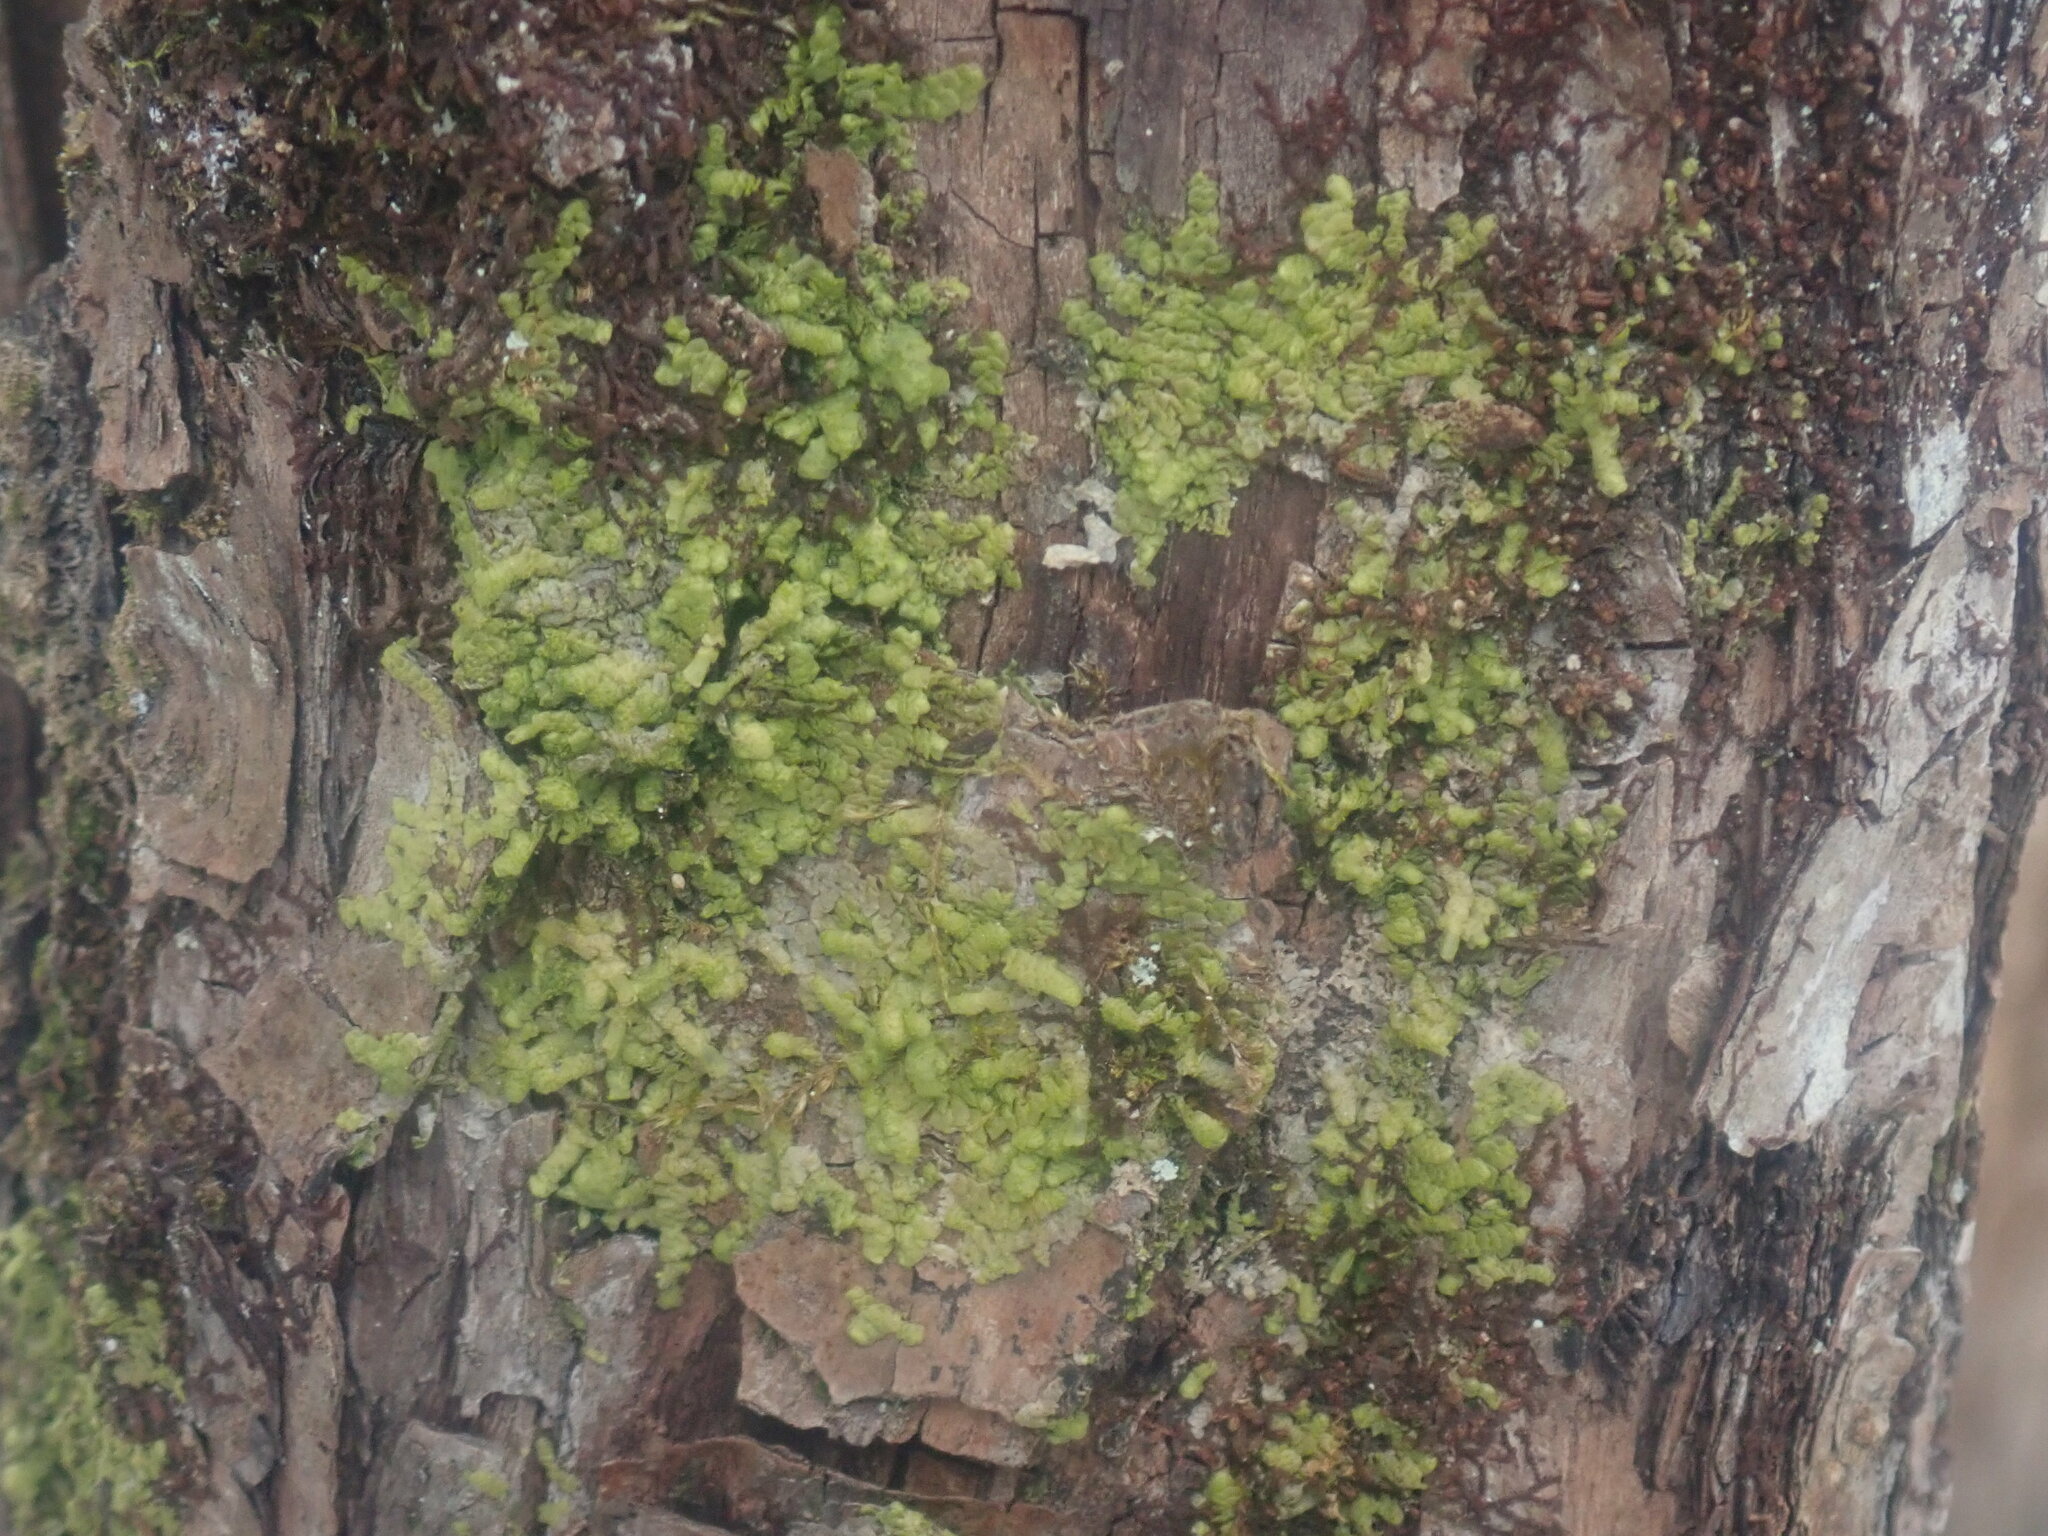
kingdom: Plantae
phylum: Marchantiophyta
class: Jungermanniopsida
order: Porellales
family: Radulaceae
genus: Radula
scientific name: Radula complanata
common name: Flat-leaved scalewort
